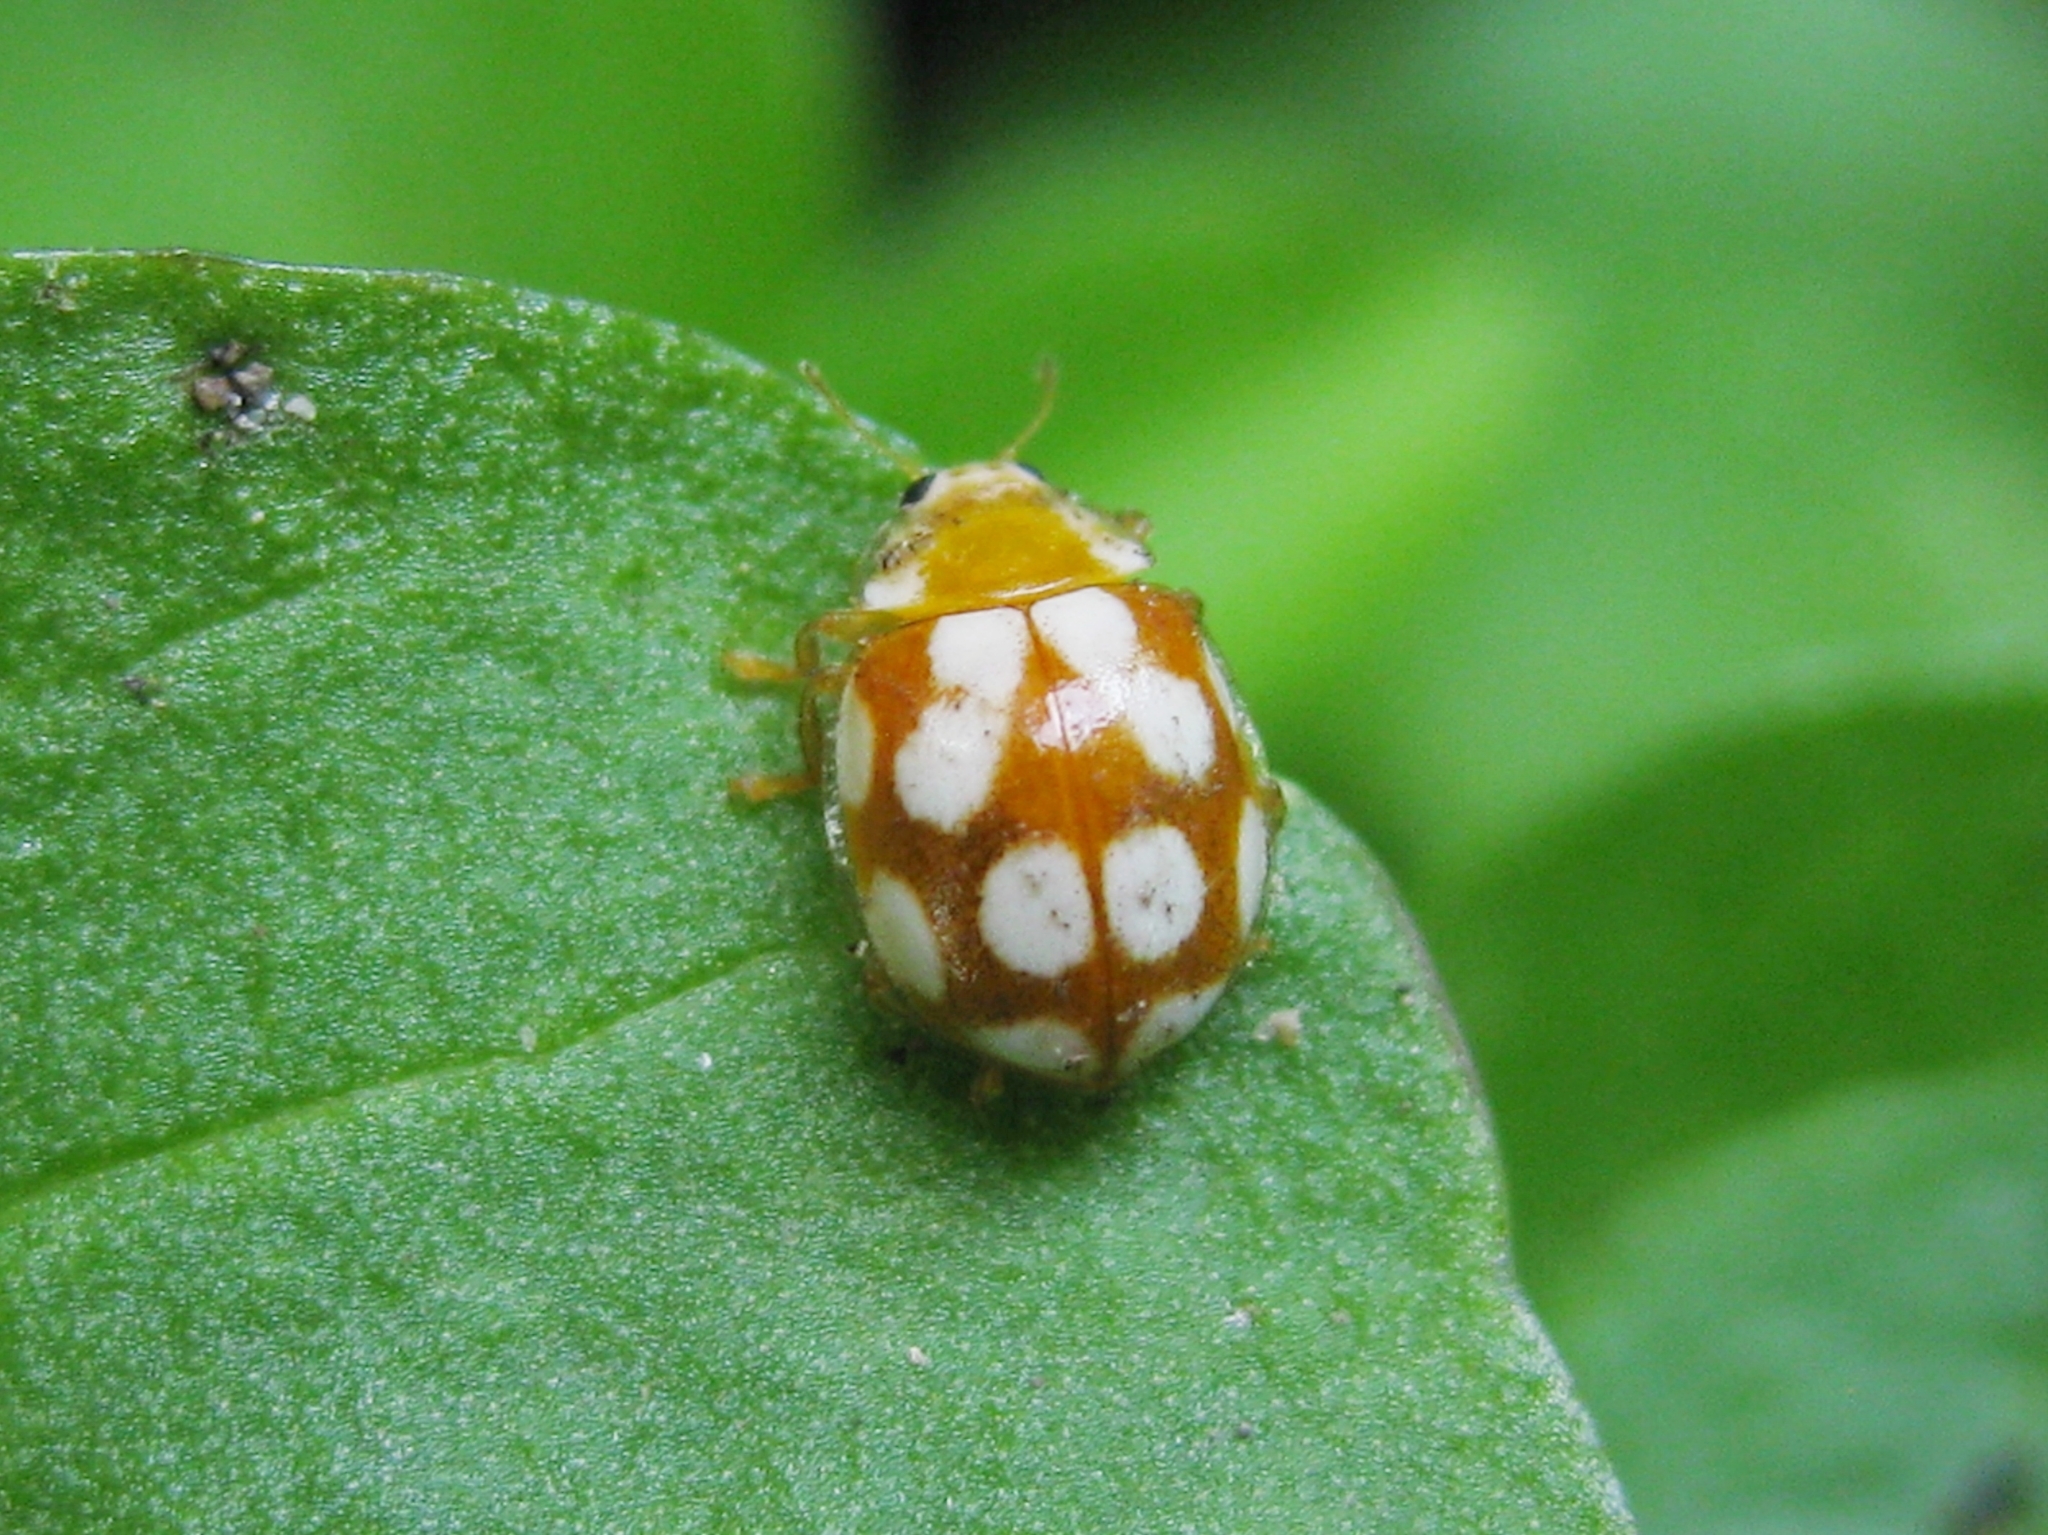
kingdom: Animalia
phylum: Arthropoda
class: Insecta
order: Coleoptera
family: Coccinellidae
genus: Vibidia
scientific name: Vibidia duodecimguttata
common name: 12-spot ladybird
